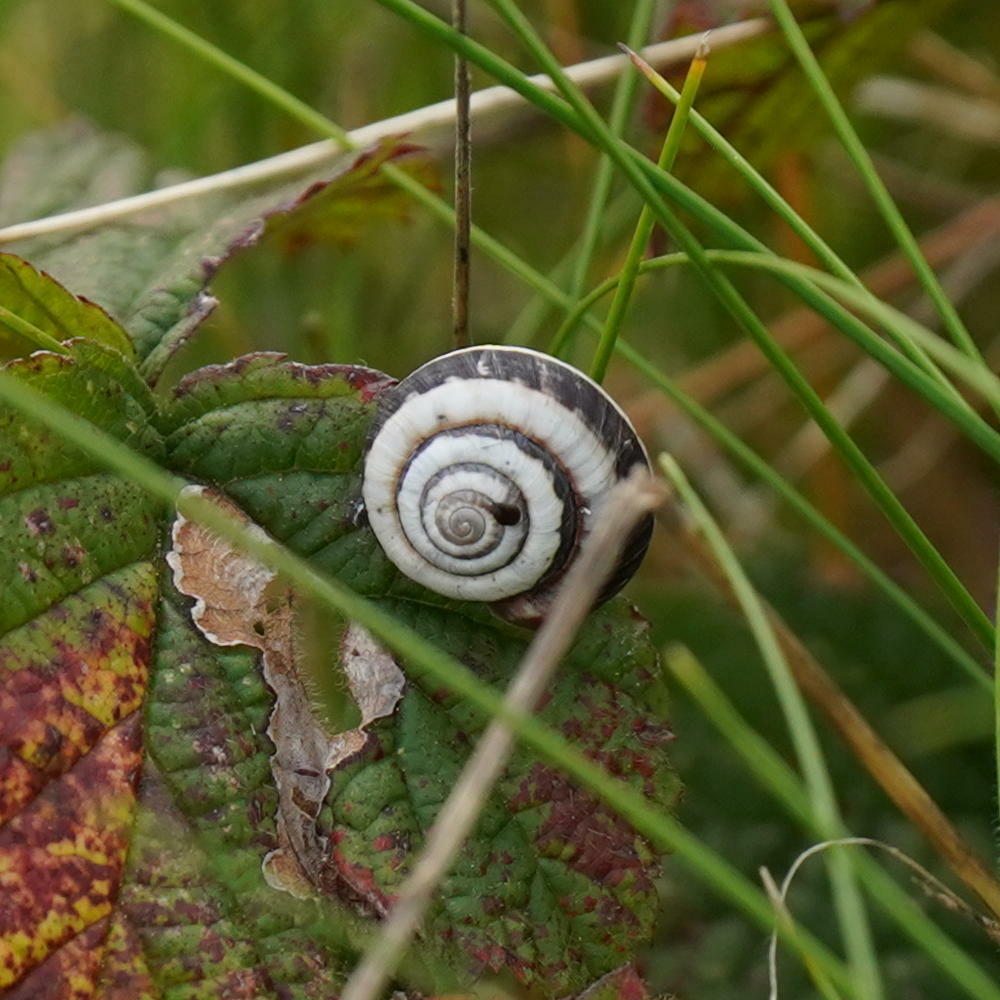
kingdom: Animalia
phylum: Mollusca
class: Gastropoda
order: Stylommatophora
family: Geomitridae
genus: Cernuella
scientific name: Cernuella virgata
